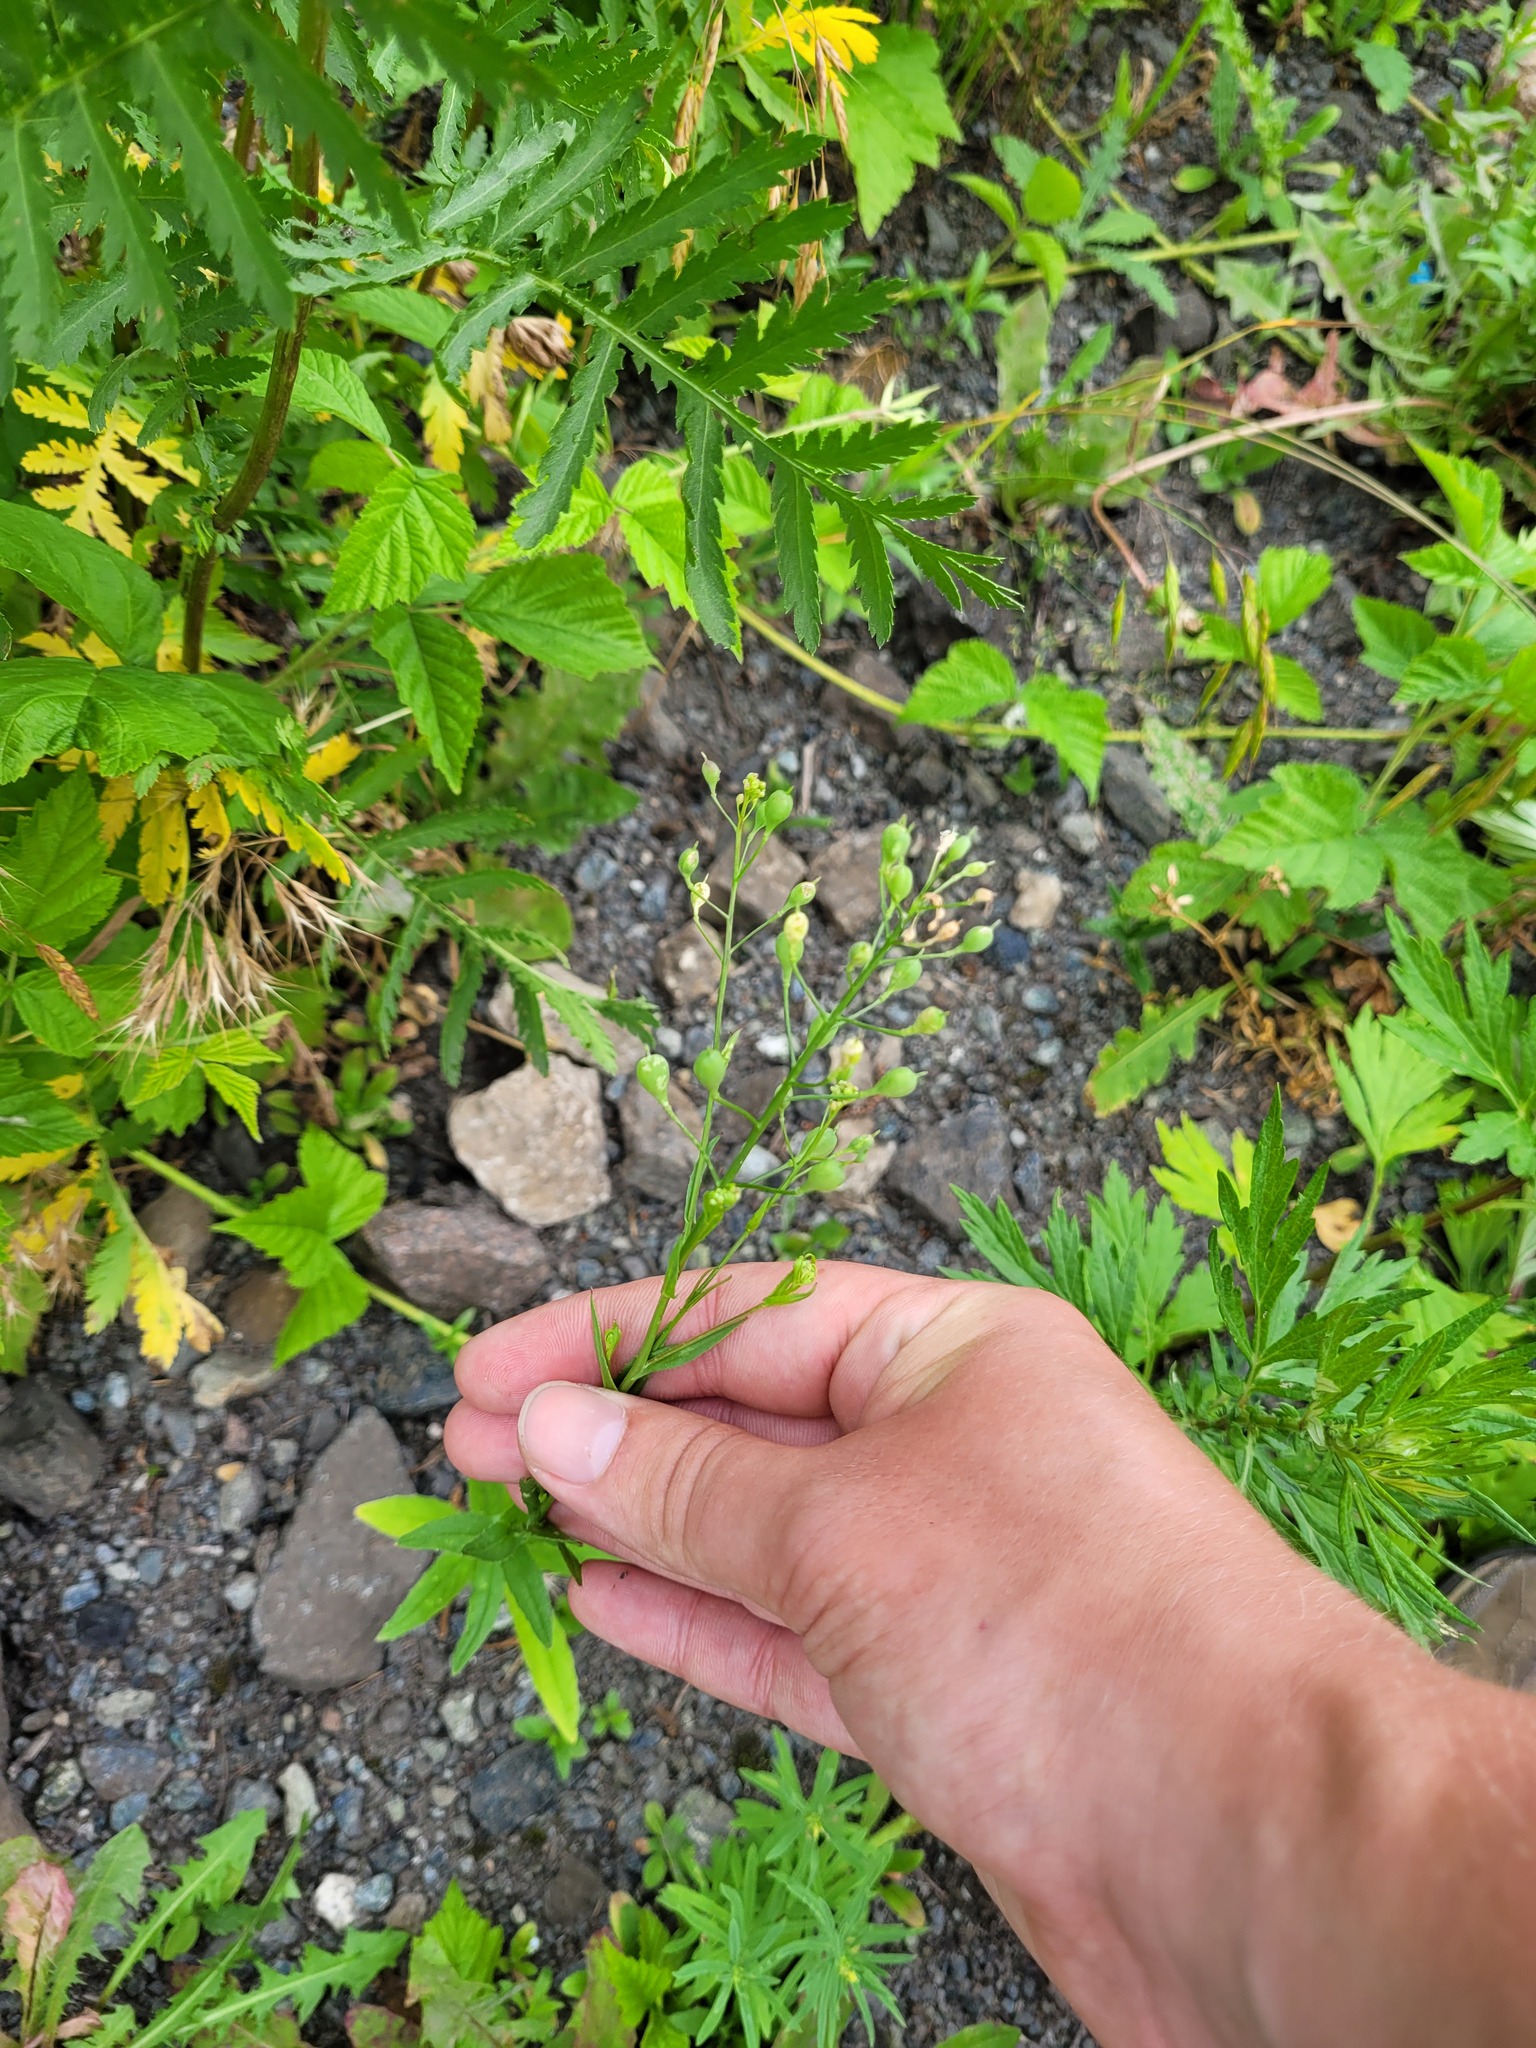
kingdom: Plantae
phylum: Tracheophyta
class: Magnoliopsida
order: Brassicales
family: Brassicaceae
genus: Camelina
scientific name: Camelina sativa
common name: Gold-of-pleasure
